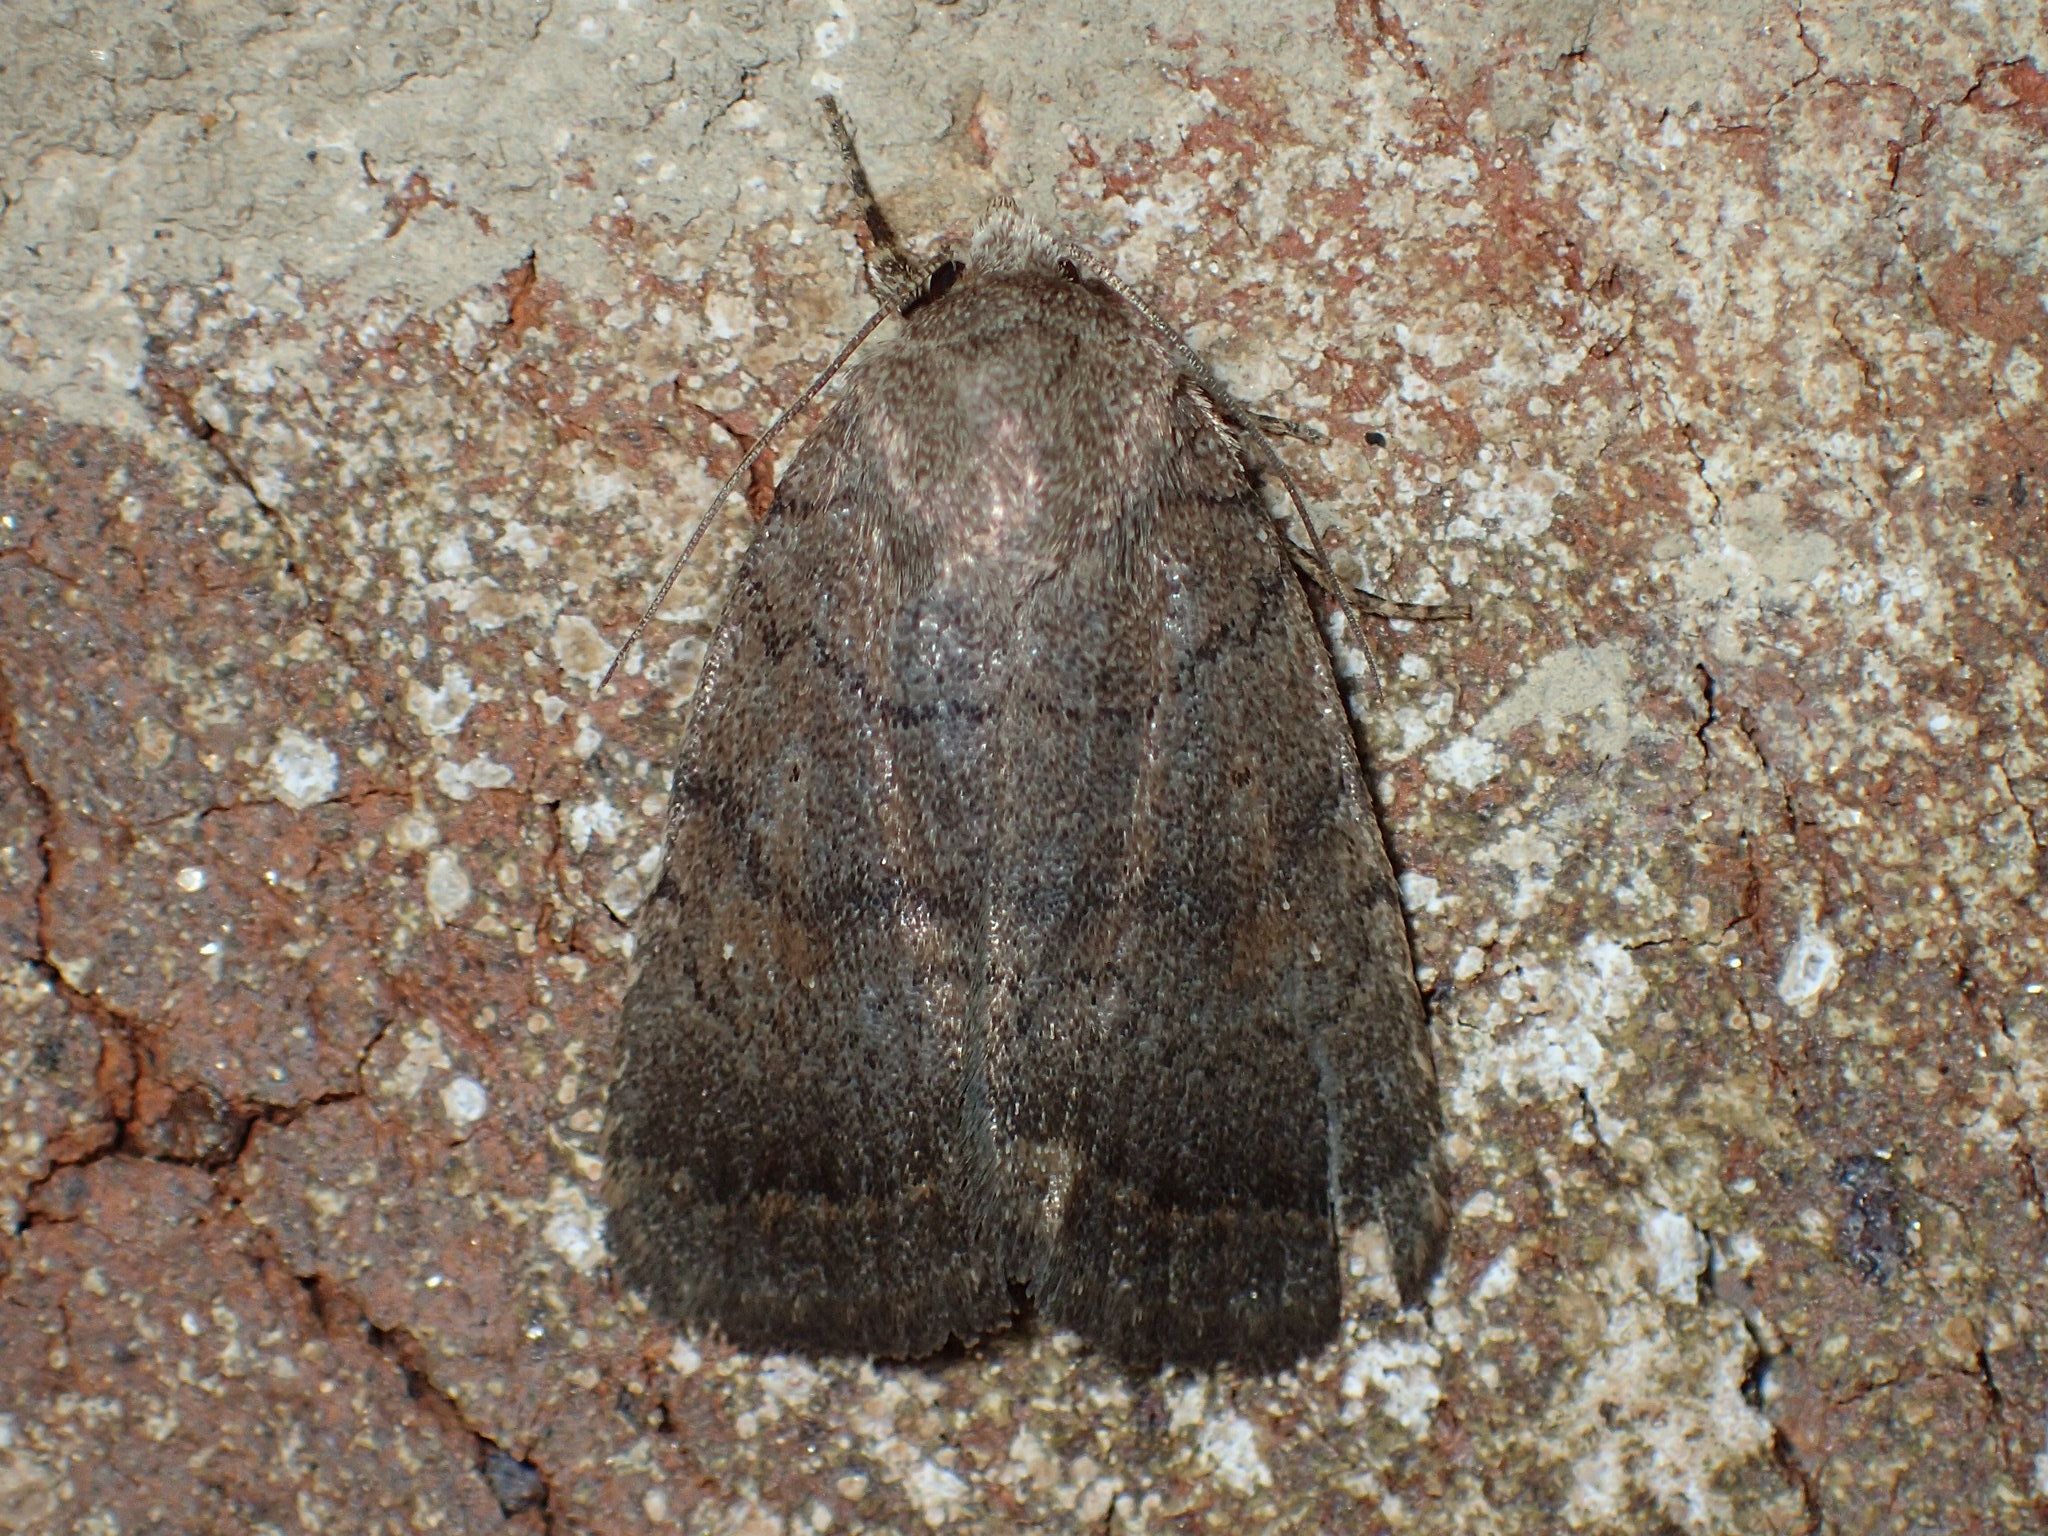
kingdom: Animalia
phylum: Arthropoda
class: Insecta
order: Lepidoptera
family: Noctuidae
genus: Athetis
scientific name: Athetis tarda
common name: Slowpoke moth
